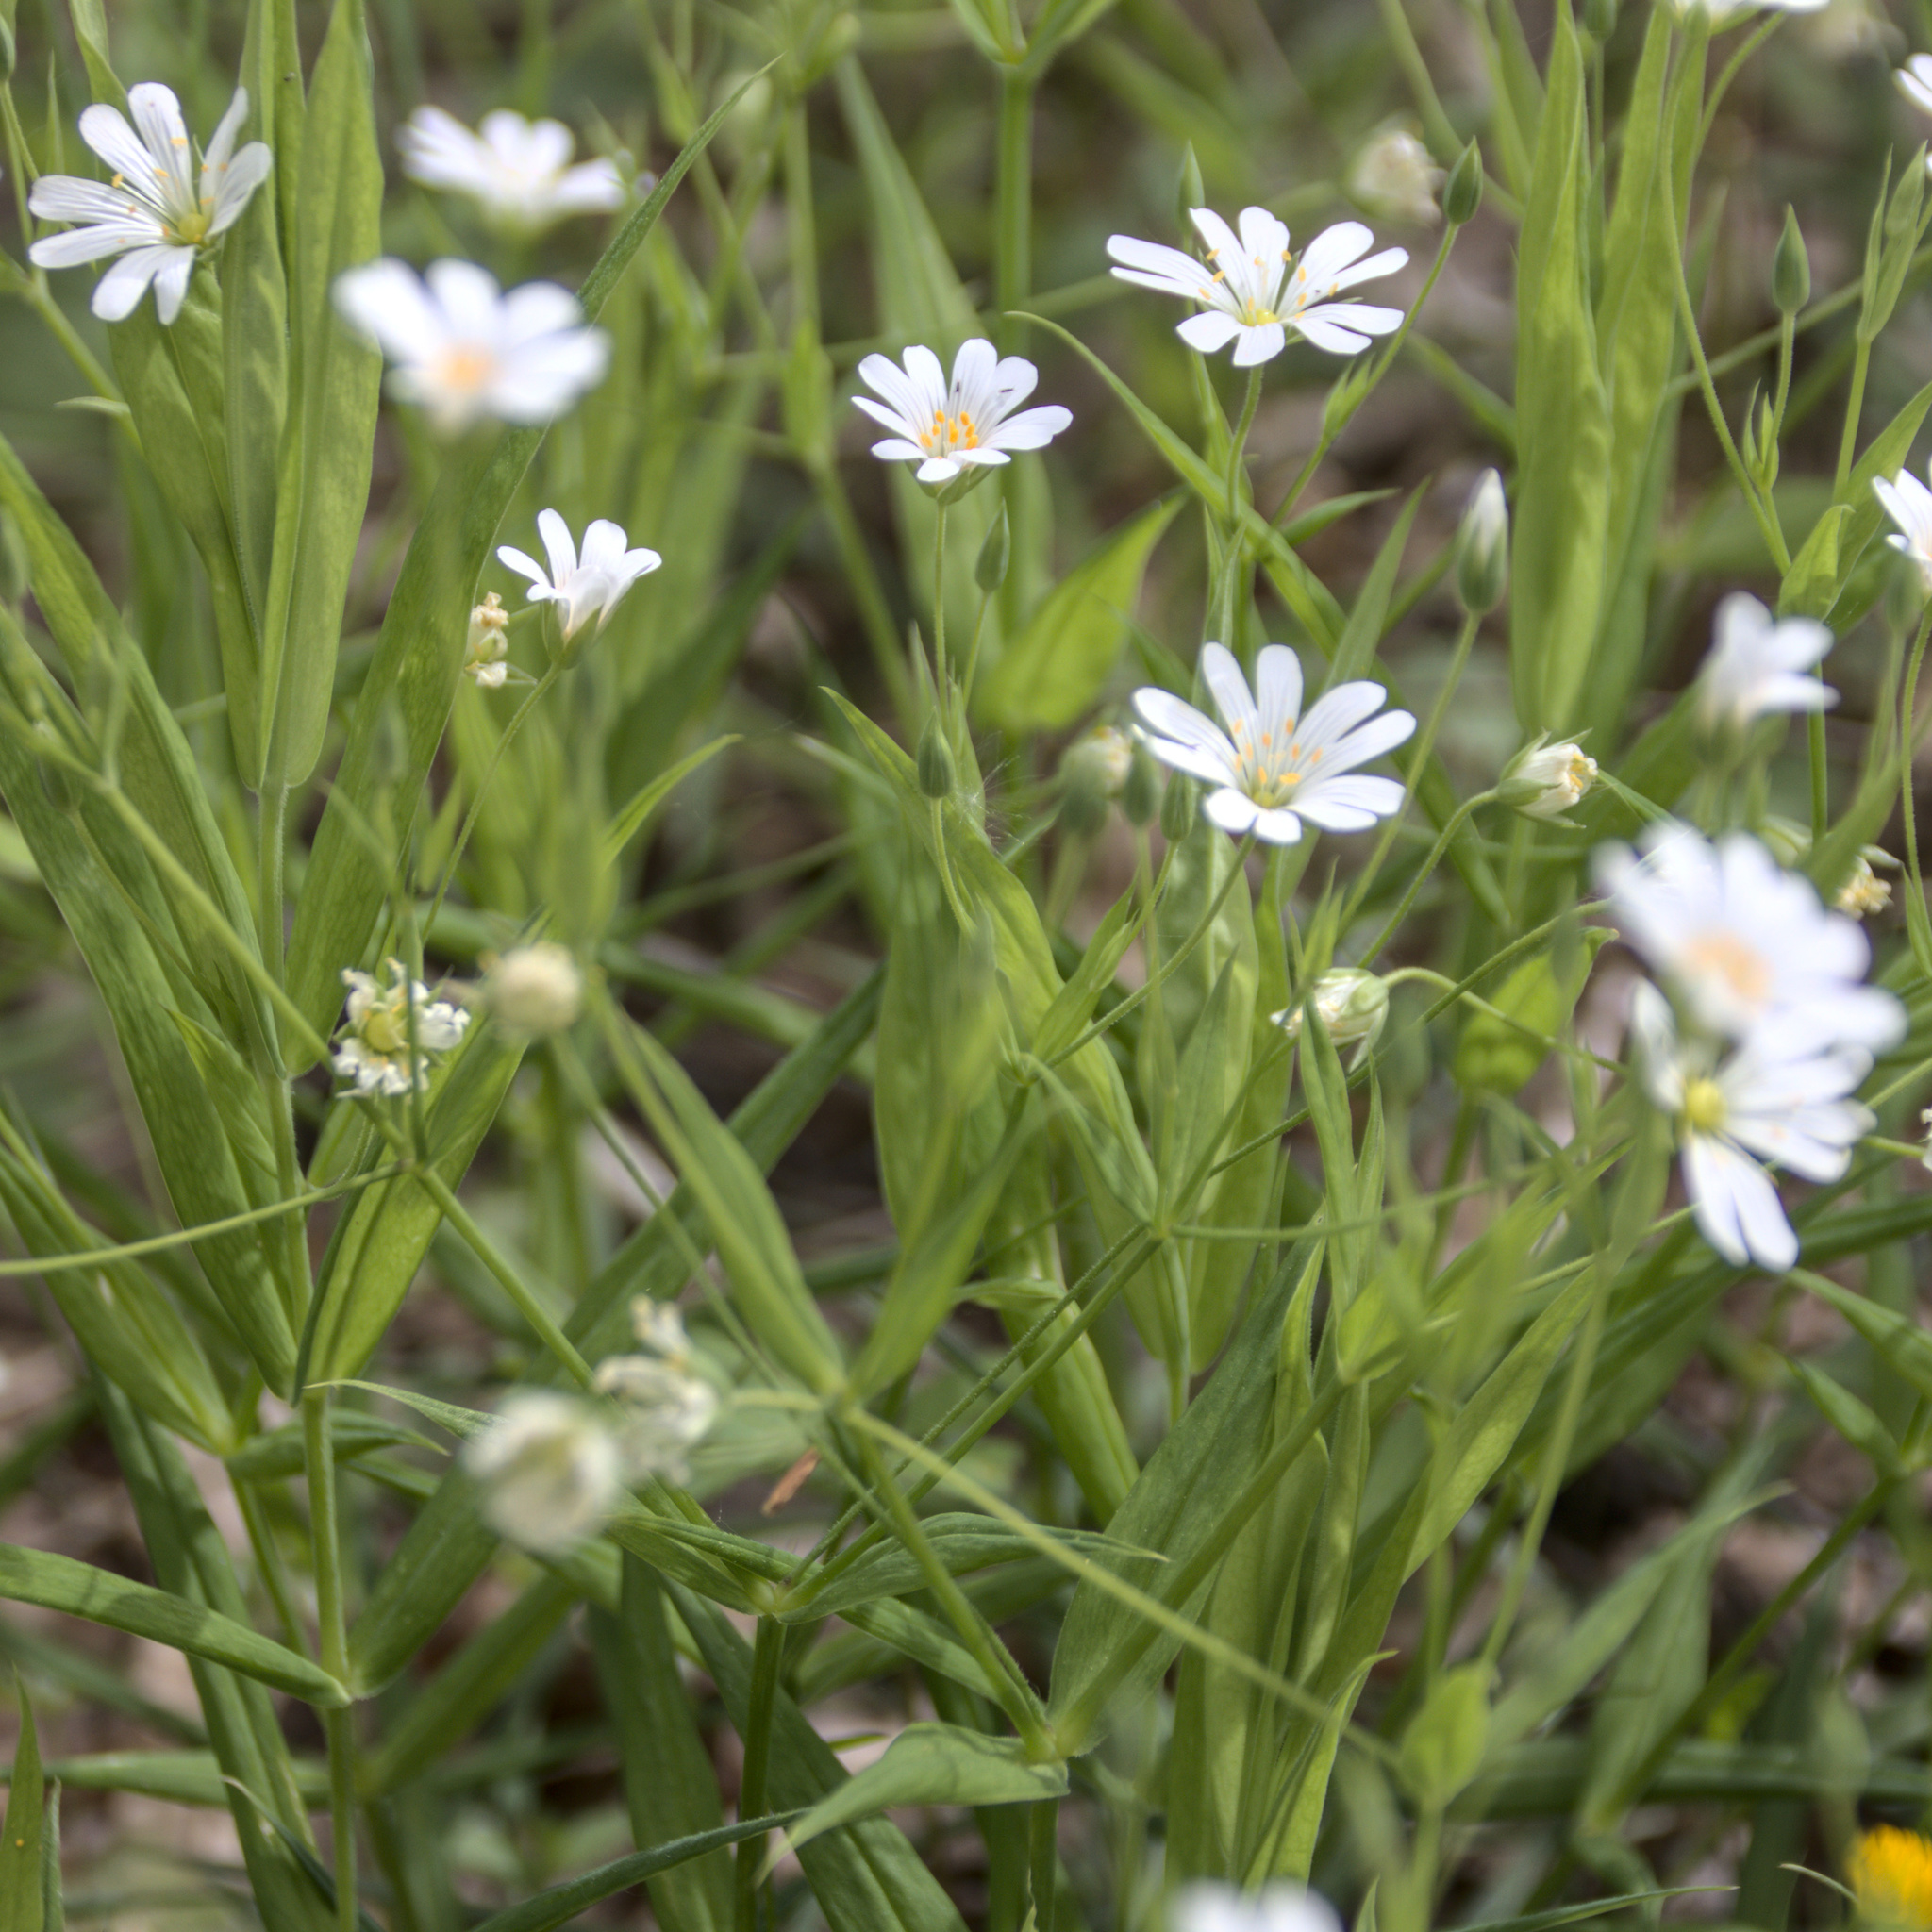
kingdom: Plantae
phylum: Tracheophyta
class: Magnoliopsida
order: Caryophyllales
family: Caryophyllaceae
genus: Rabelera
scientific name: Rabelera holostea
